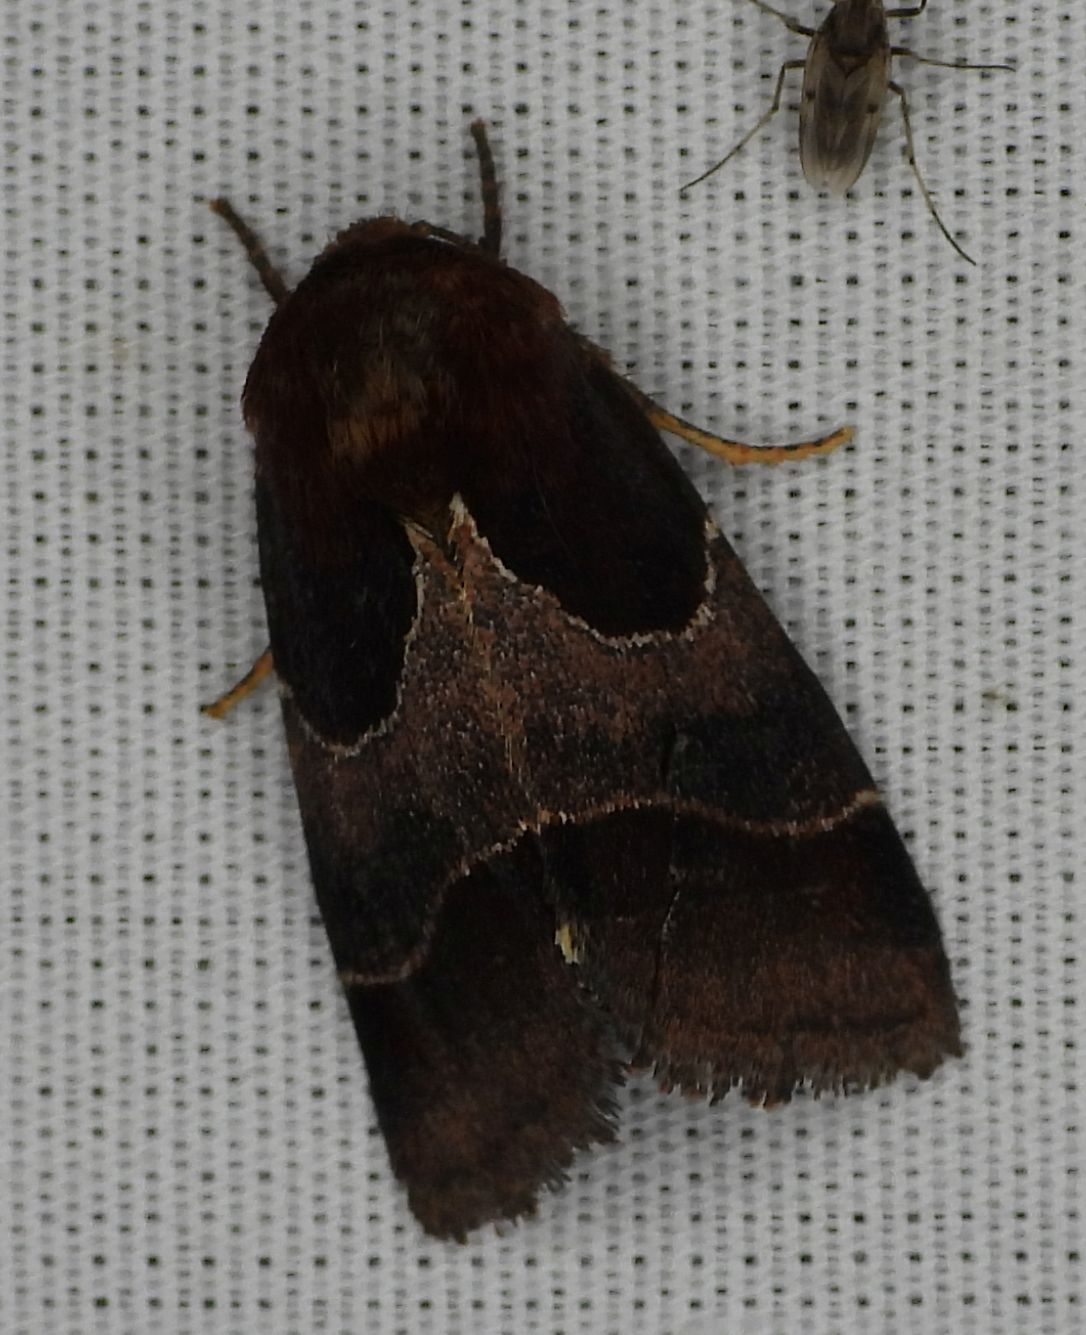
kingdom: Animalia
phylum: Arthropoda
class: Insecta
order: Lepidoptera
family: Noctuidae
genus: Schinia
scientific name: Schinia arcigera
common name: Arcigera flower moth
